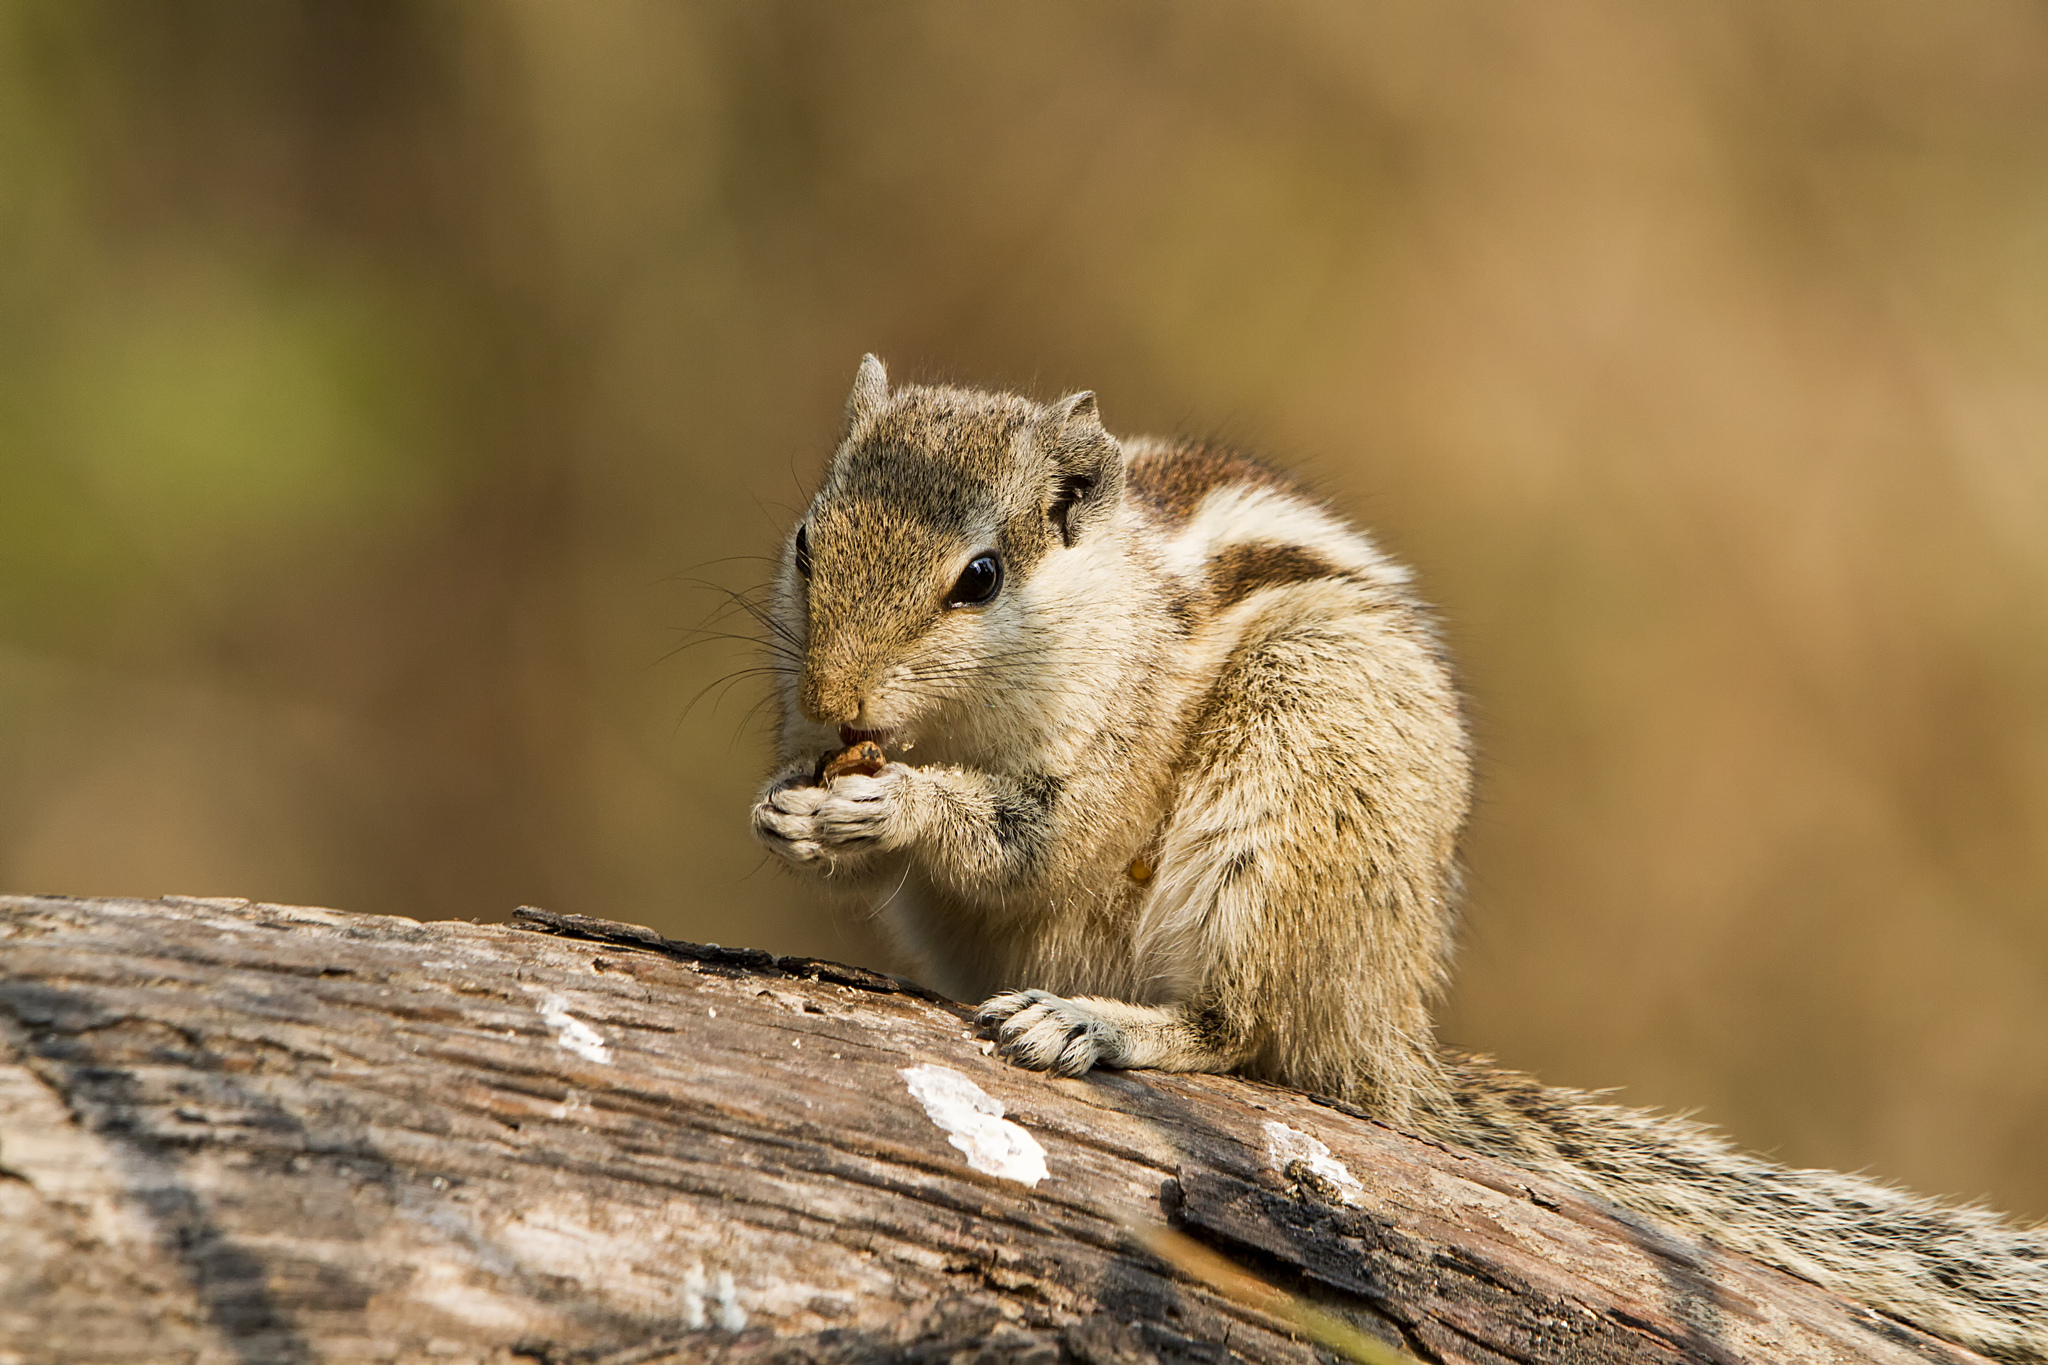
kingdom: Animalia
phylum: Chordata
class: Mammalia
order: Rodentia
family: Sciuridae
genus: Funambulus
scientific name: Funambulus pennantii
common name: Northern palm squirrel
